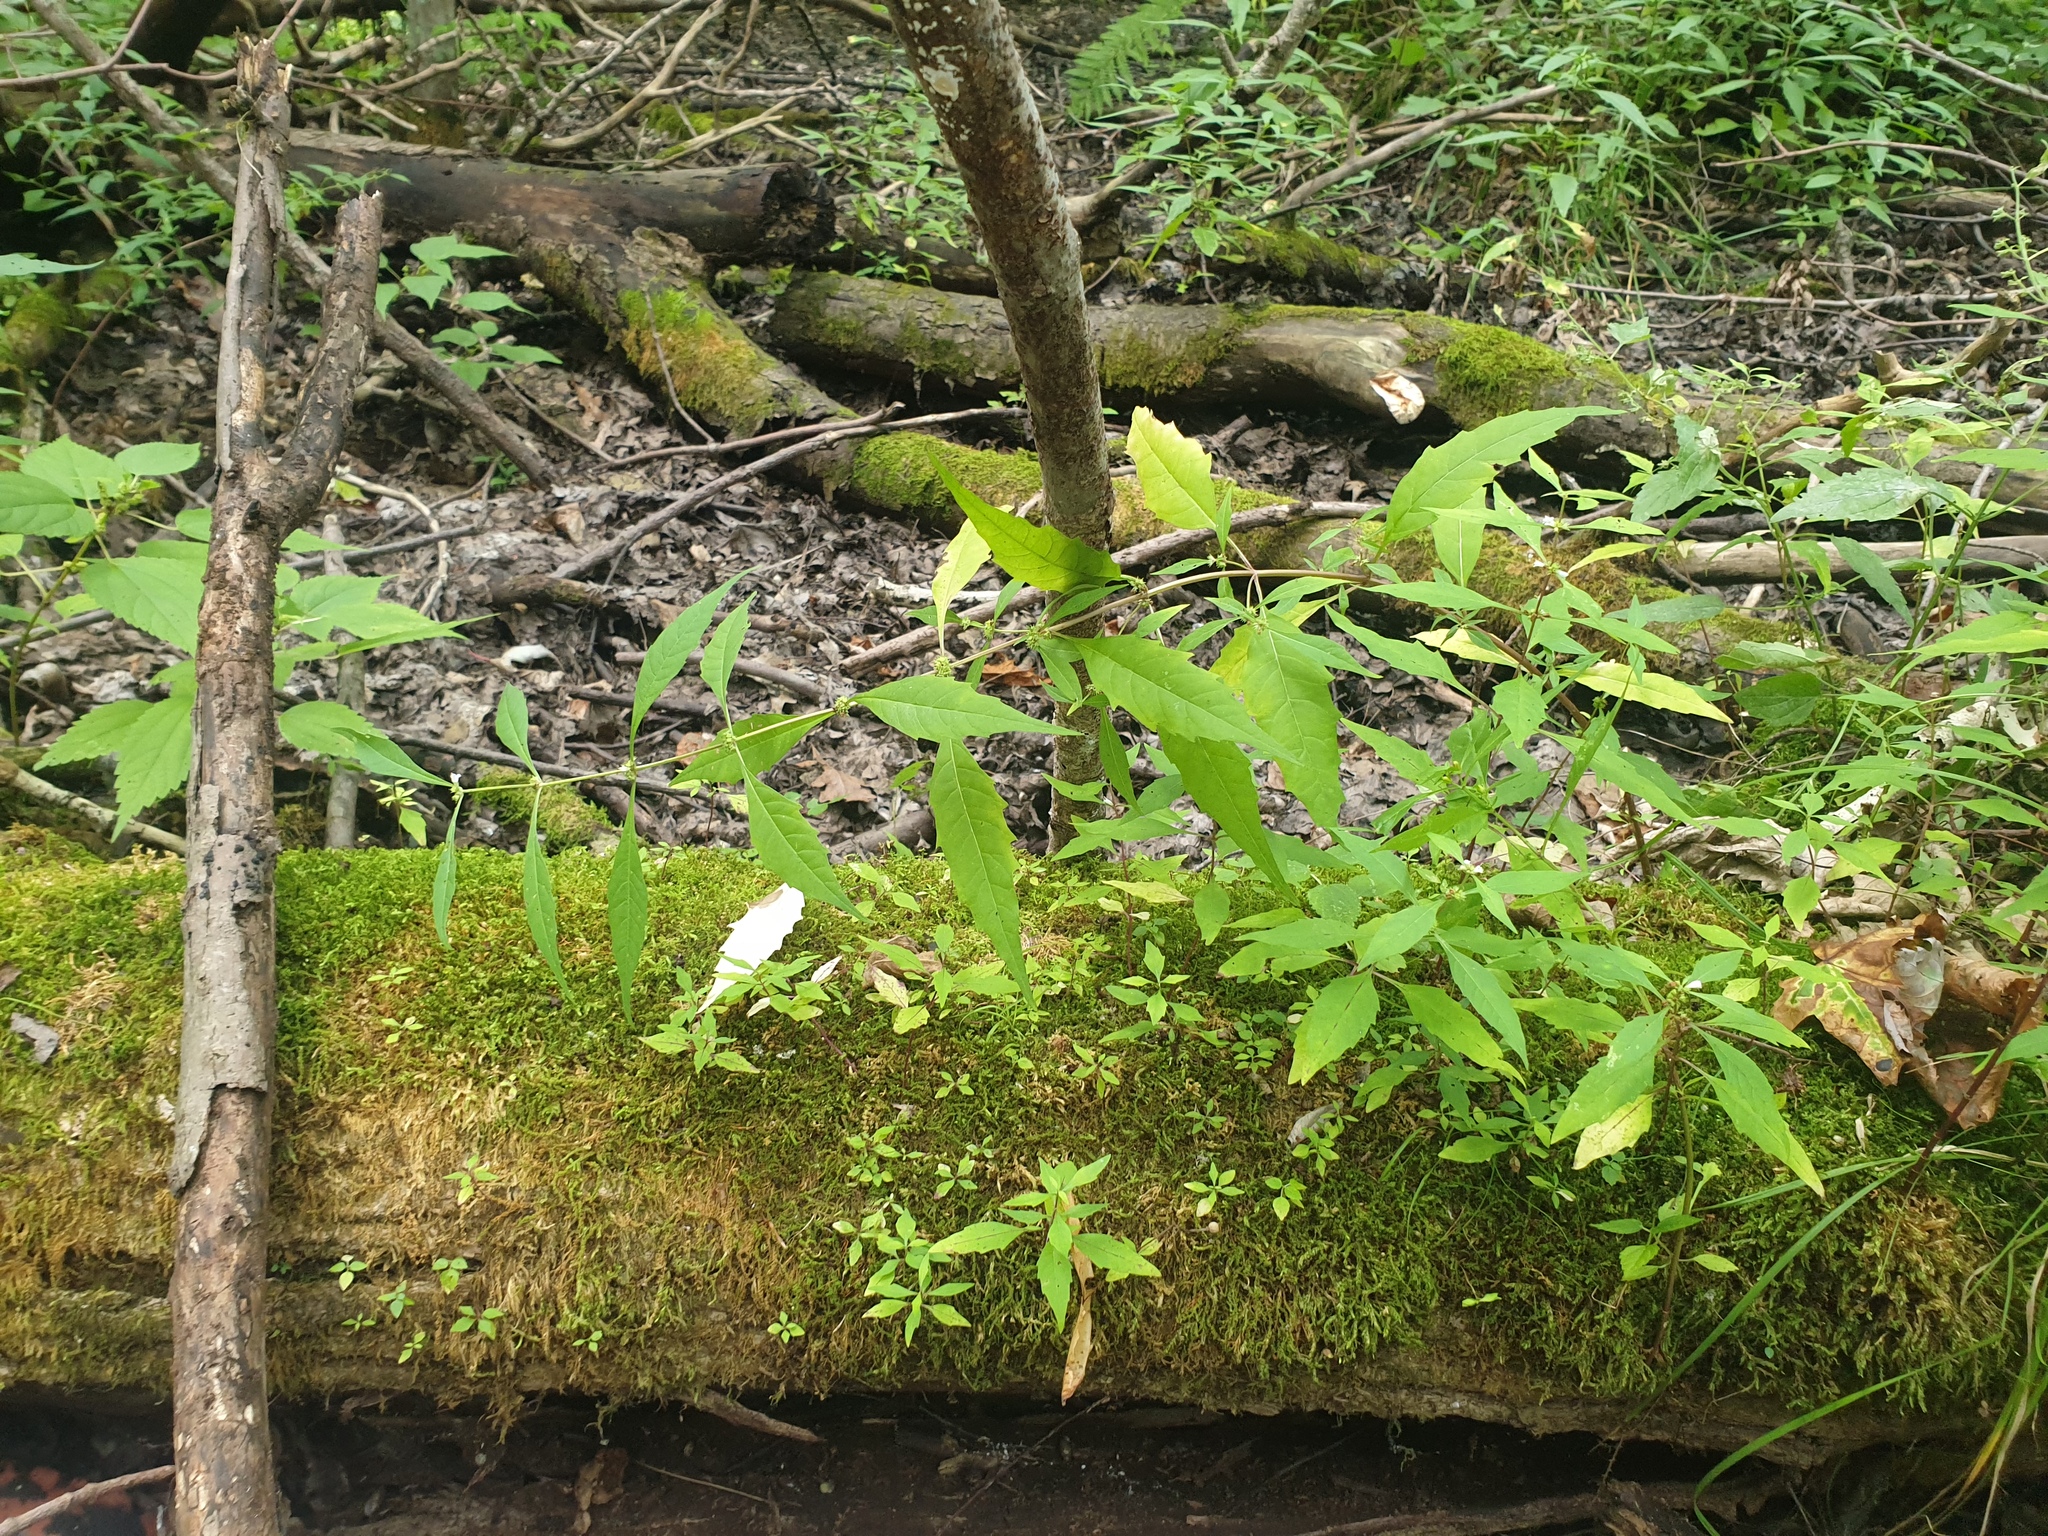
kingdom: Plantae
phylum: Tracheophyta
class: Magnoliopsida
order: Lamiales
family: Lamiaceae
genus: Lycopus
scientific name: Lycopus rubellus
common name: Stalked bugleweed
